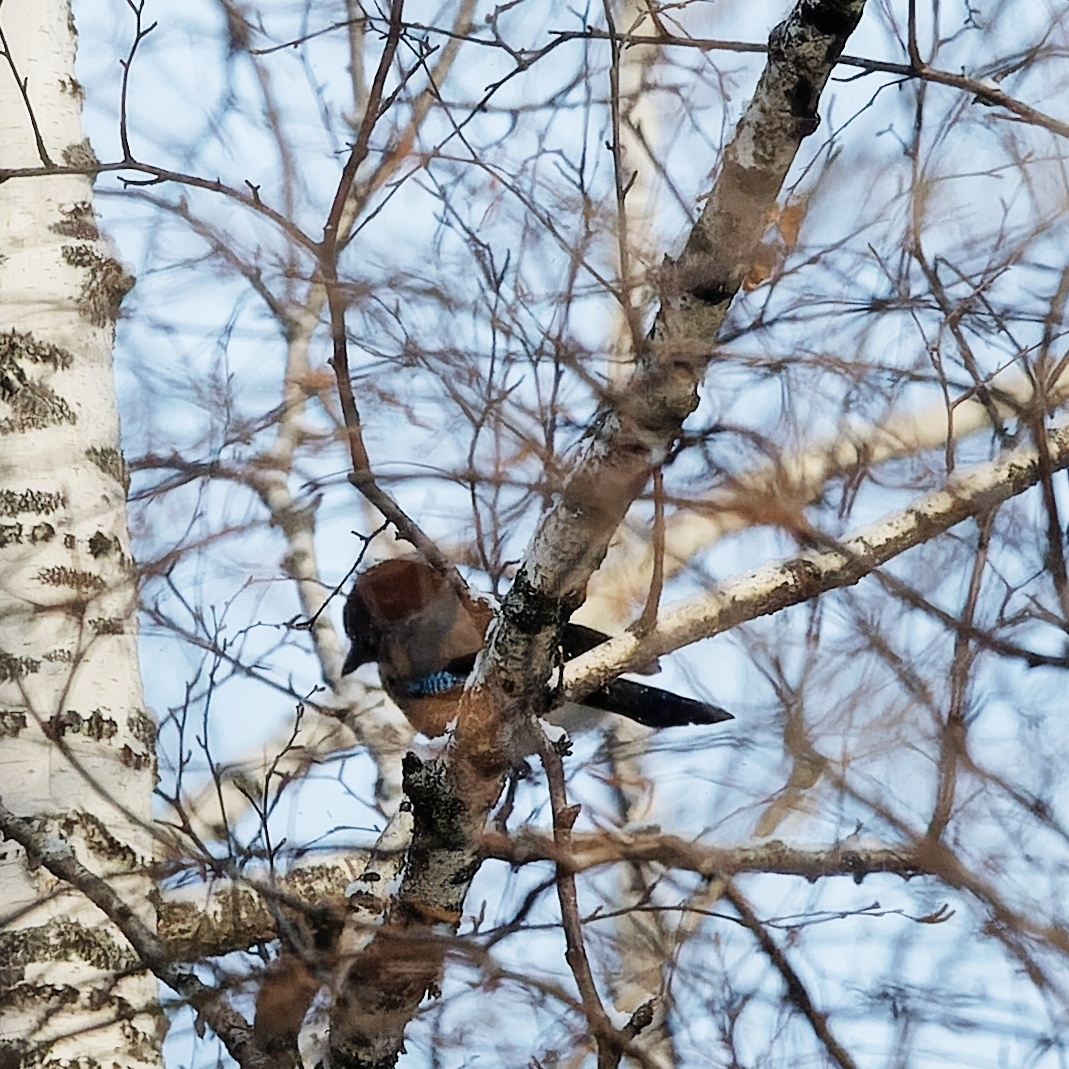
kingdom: Animalia
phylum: Chordata
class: Aves
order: Passeriformes
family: Corvidae
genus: Garrulus
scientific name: Garrulus glandarius
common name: Eurasian jay
